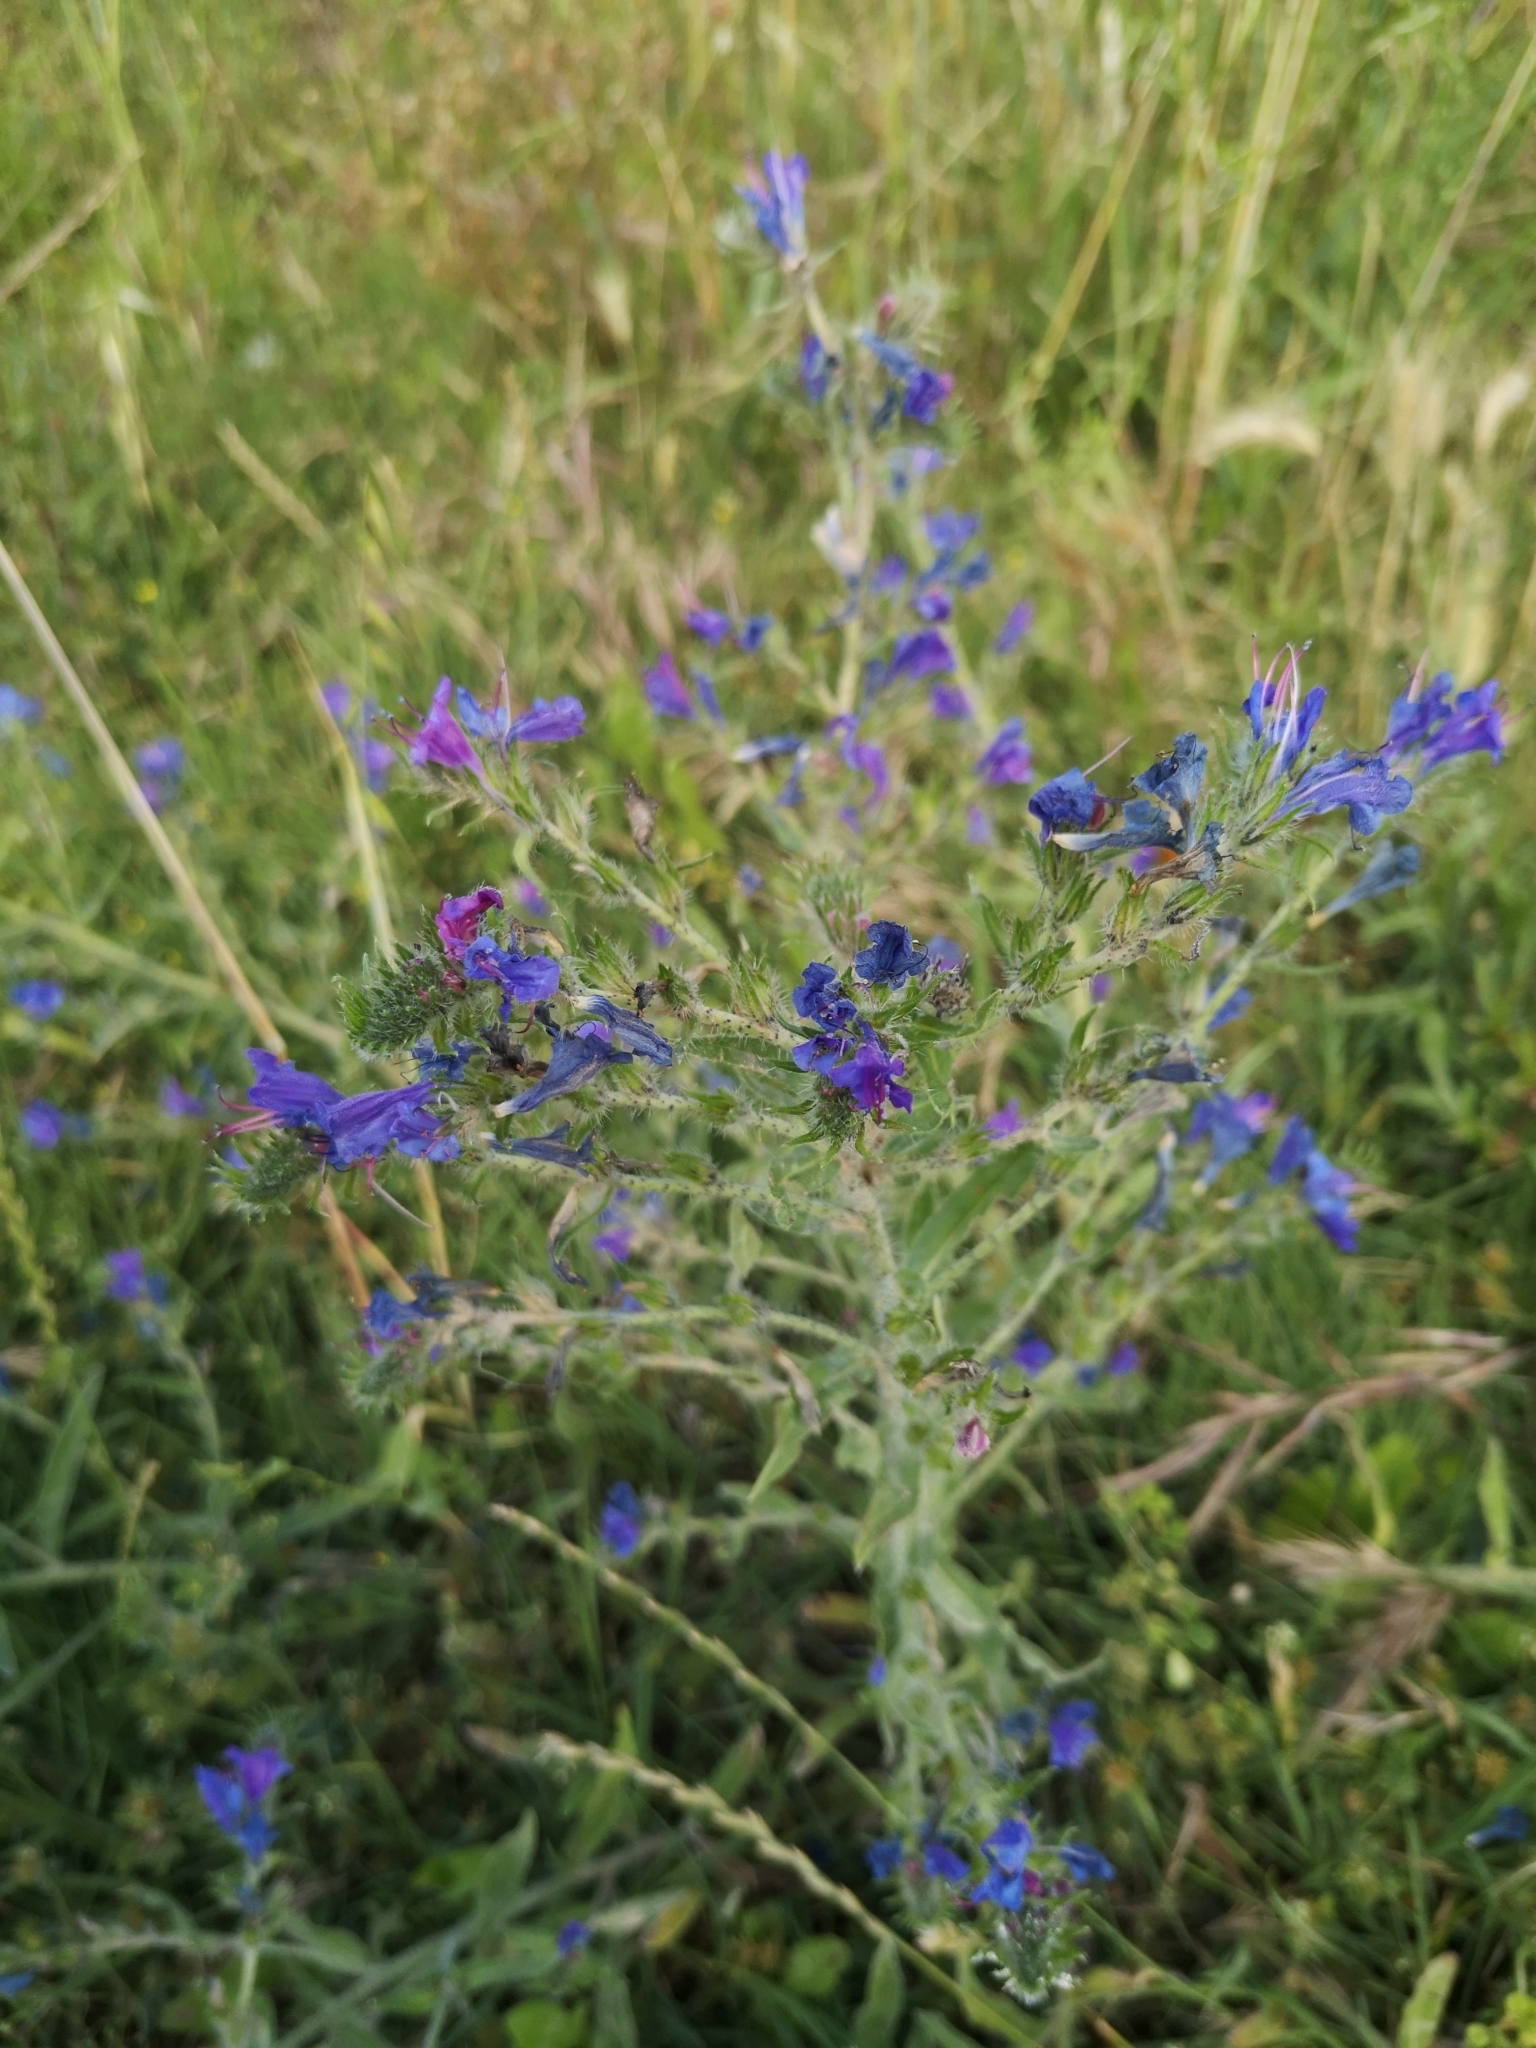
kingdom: Plantae
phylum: Tracheophyta
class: Magnoliopsida
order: Boraginales
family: Boraginaceae
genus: Echium
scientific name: Echium vulgare
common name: Common viper's bugloss
